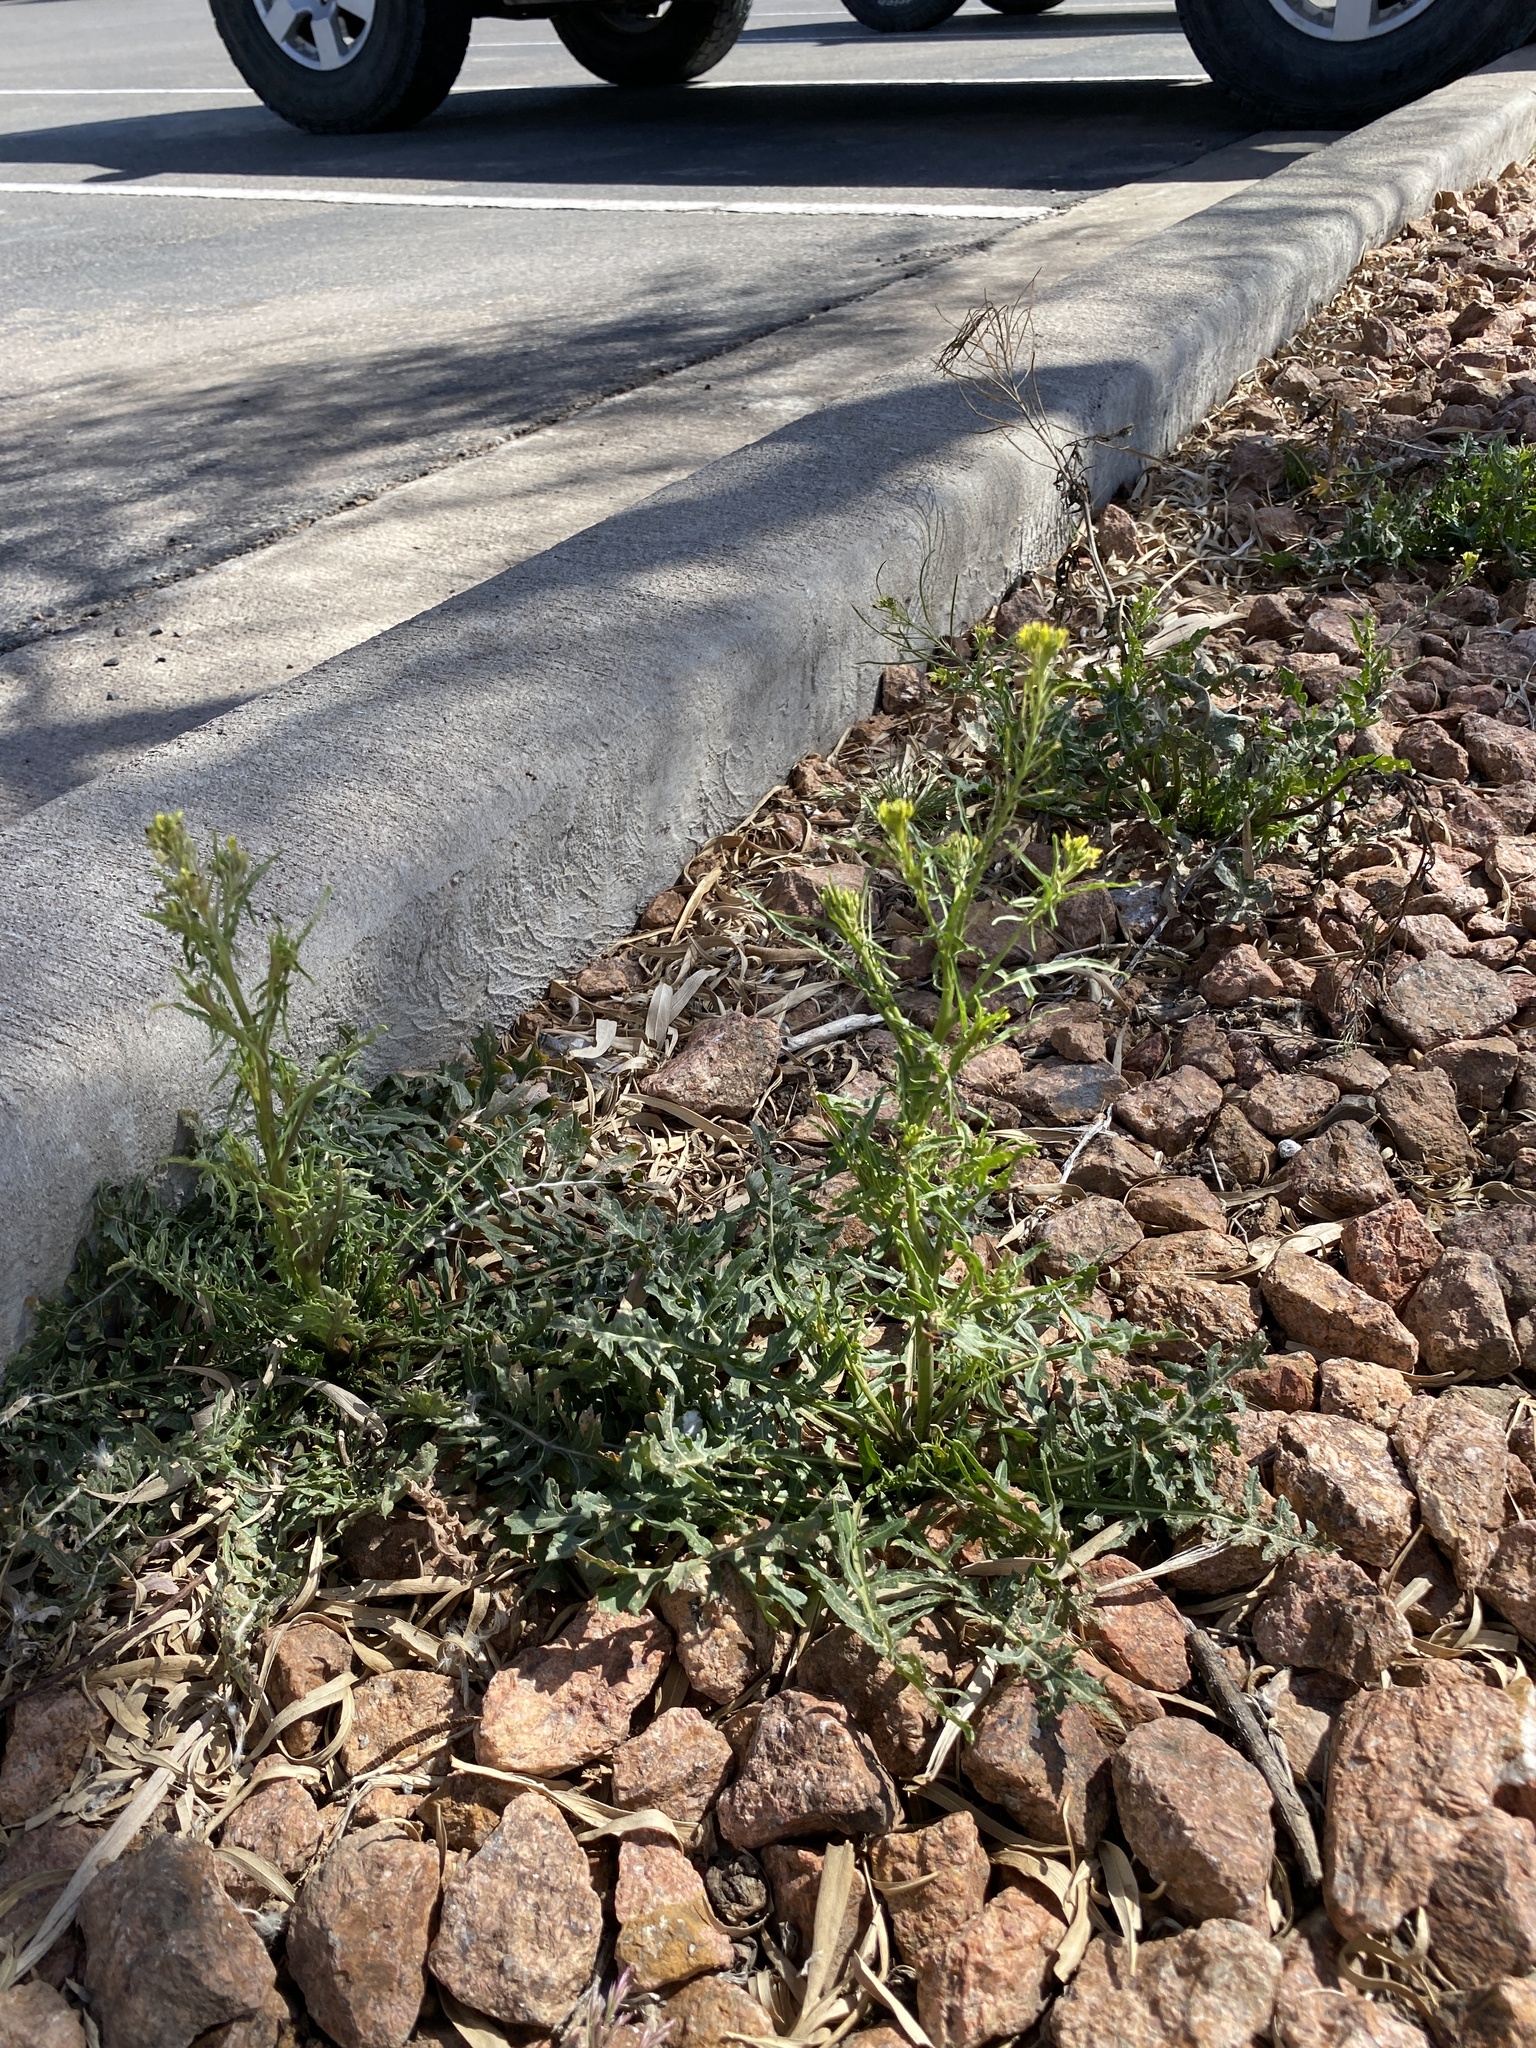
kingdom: Plantae
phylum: Tracheophyta
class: Magnoliopsida
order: Brassicales
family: Brassicaceae
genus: Sisymbrium
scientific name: Sisymbrium irio
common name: London rocket
